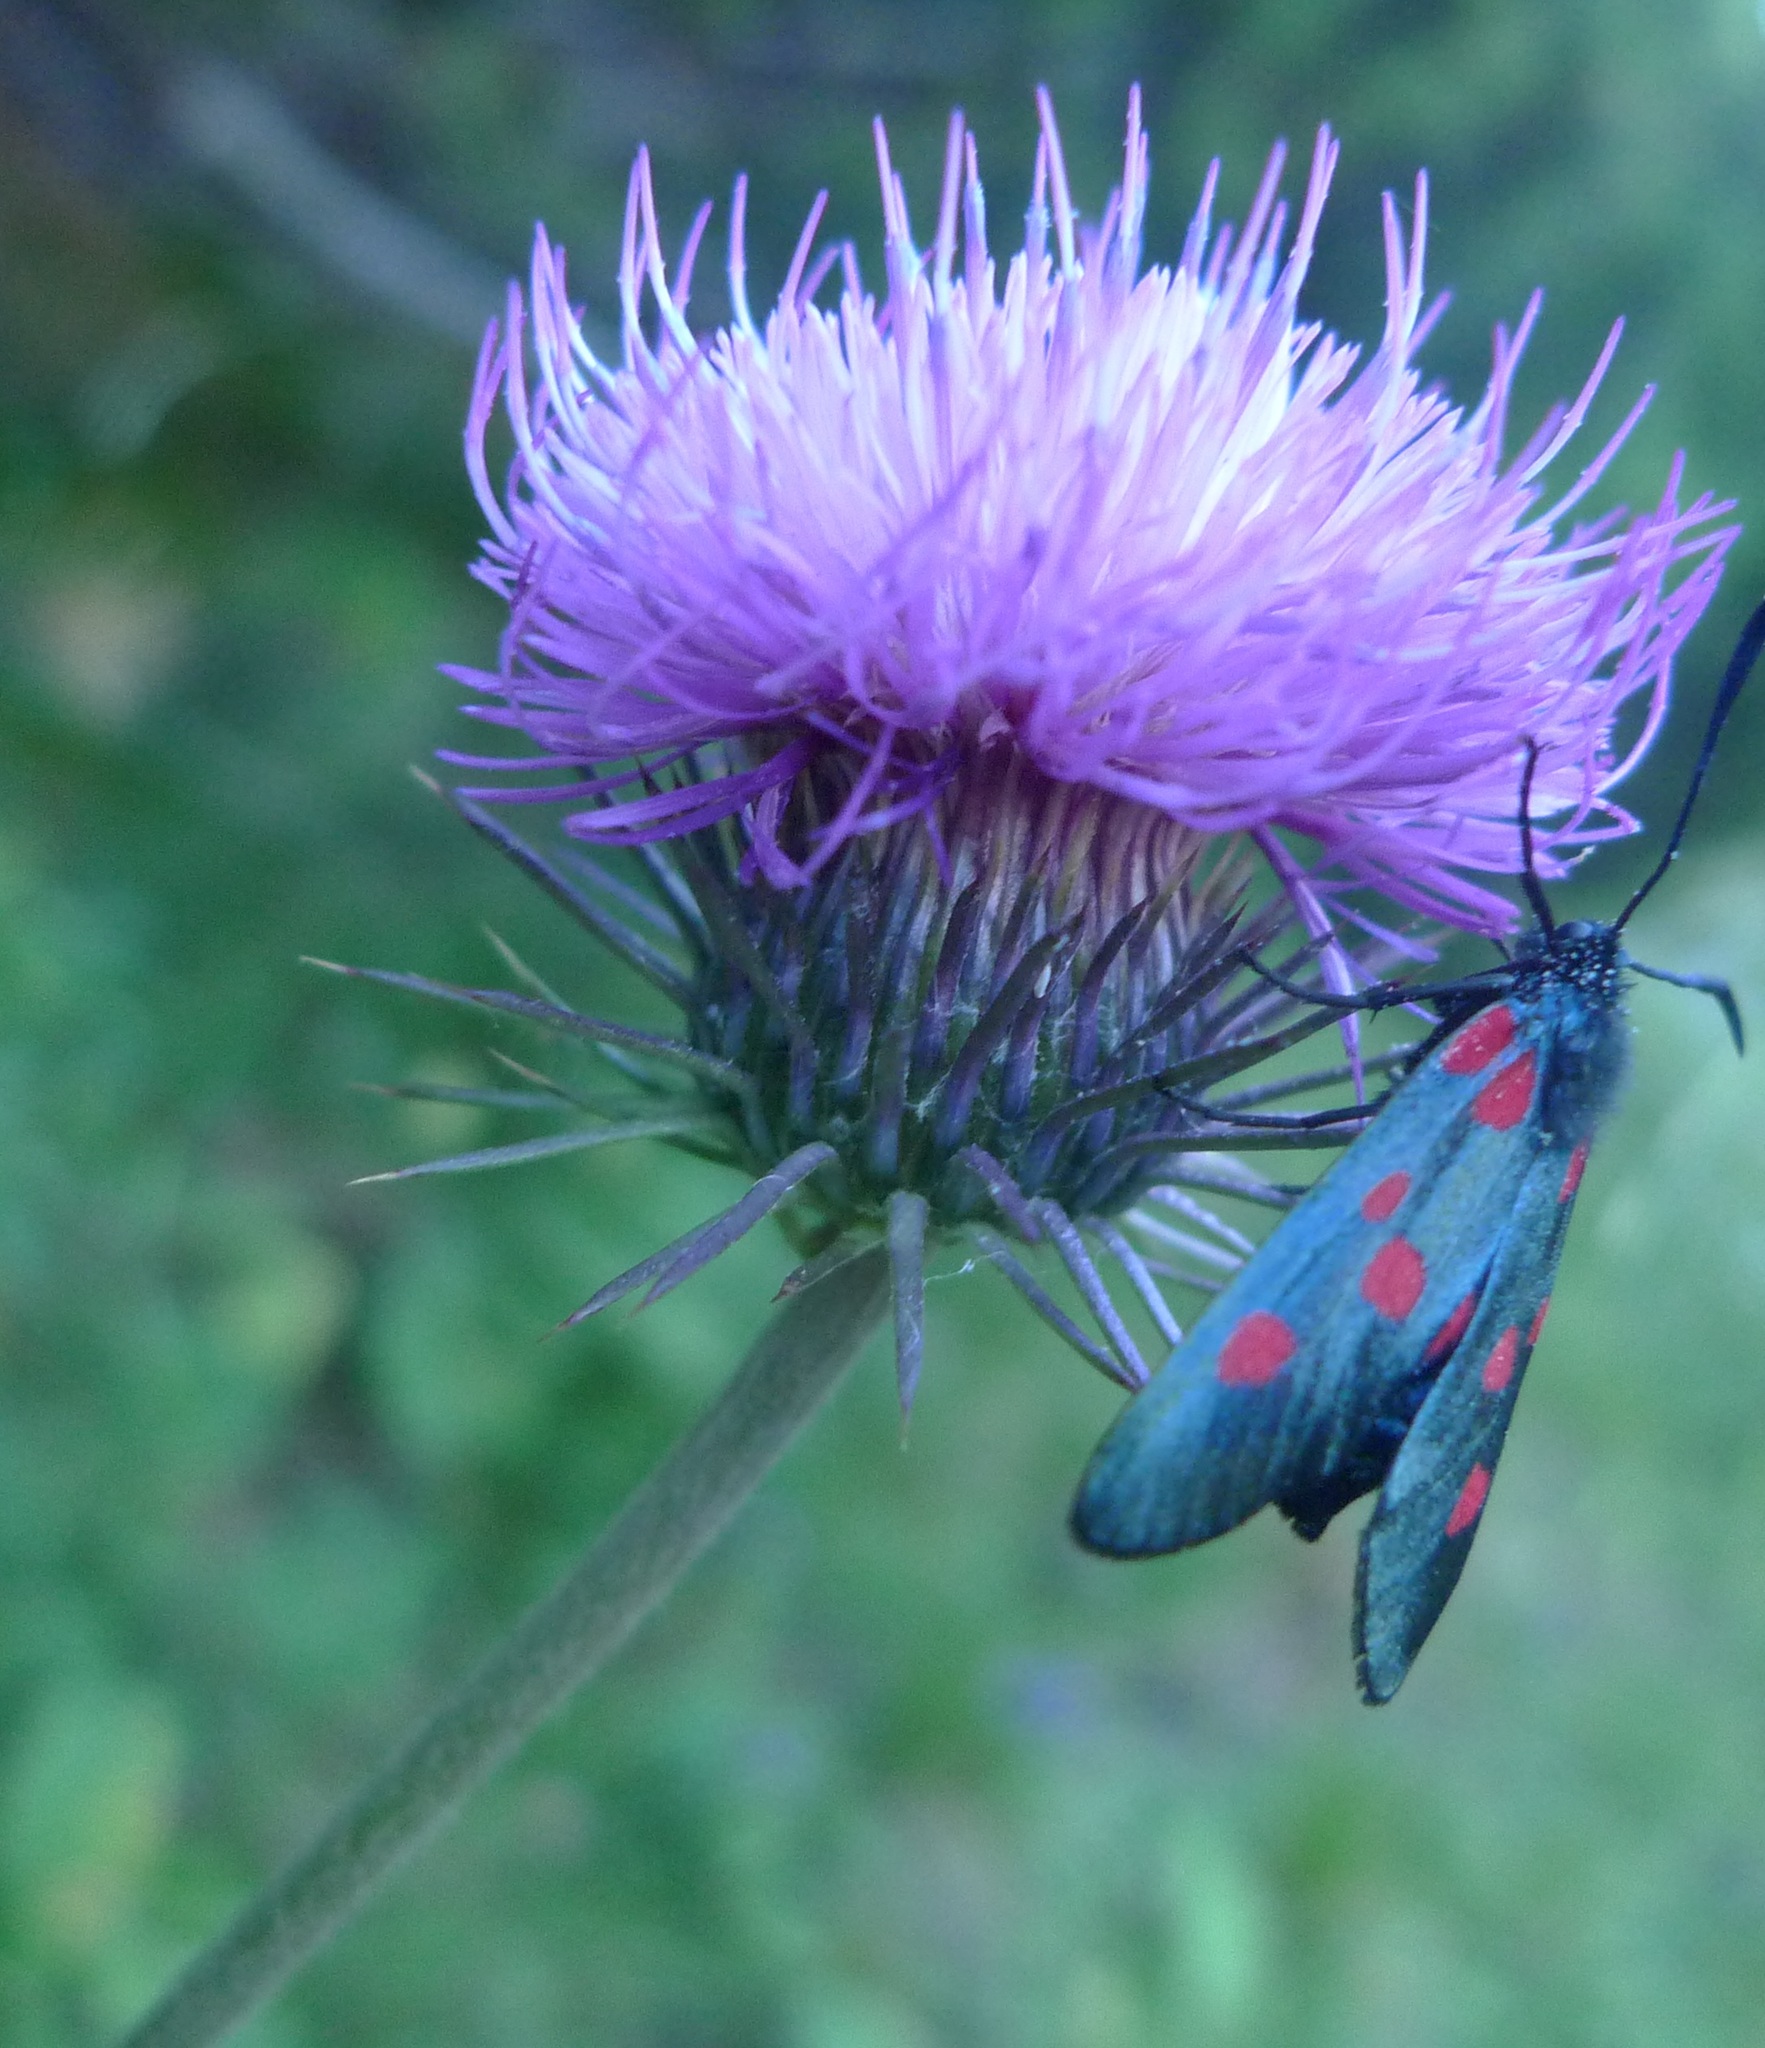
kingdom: Plantae
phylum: Tracheophyta
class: Magnoliopsida
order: Asterales
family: Asteraceae
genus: Carduus
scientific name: Carduus defloratus
